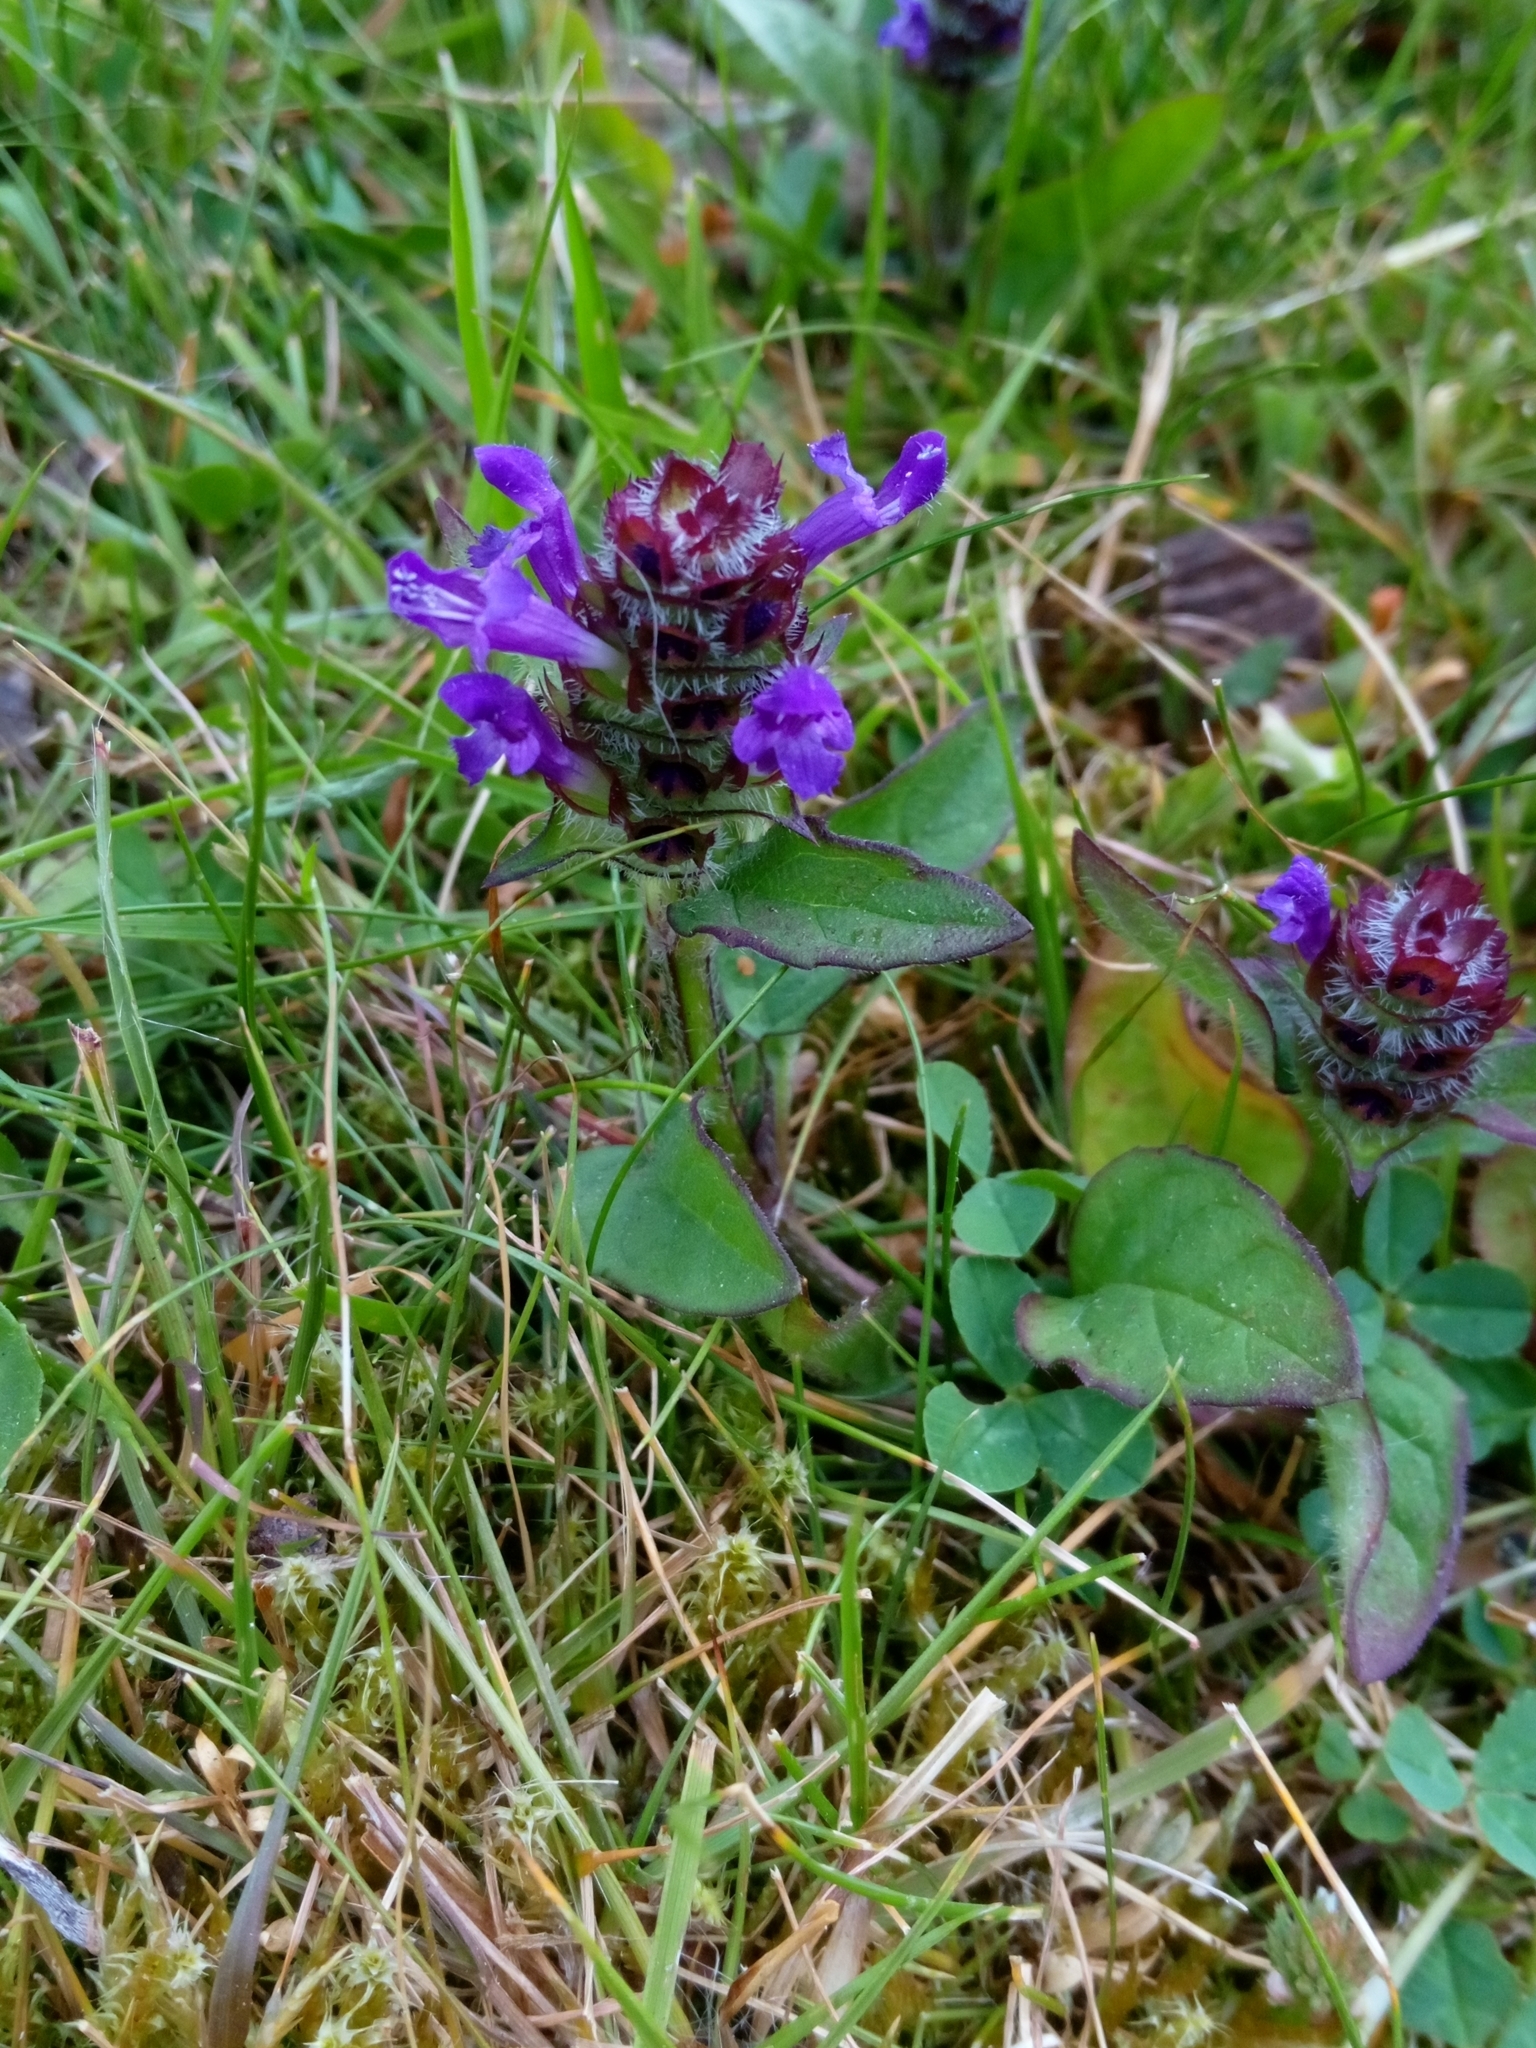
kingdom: Plantae
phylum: Tracheophyta
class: Magnoliopsida
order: Lamiales
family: Lamiaceae
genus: Prunella
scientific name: Prunella vulgaris
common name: Heal-all
